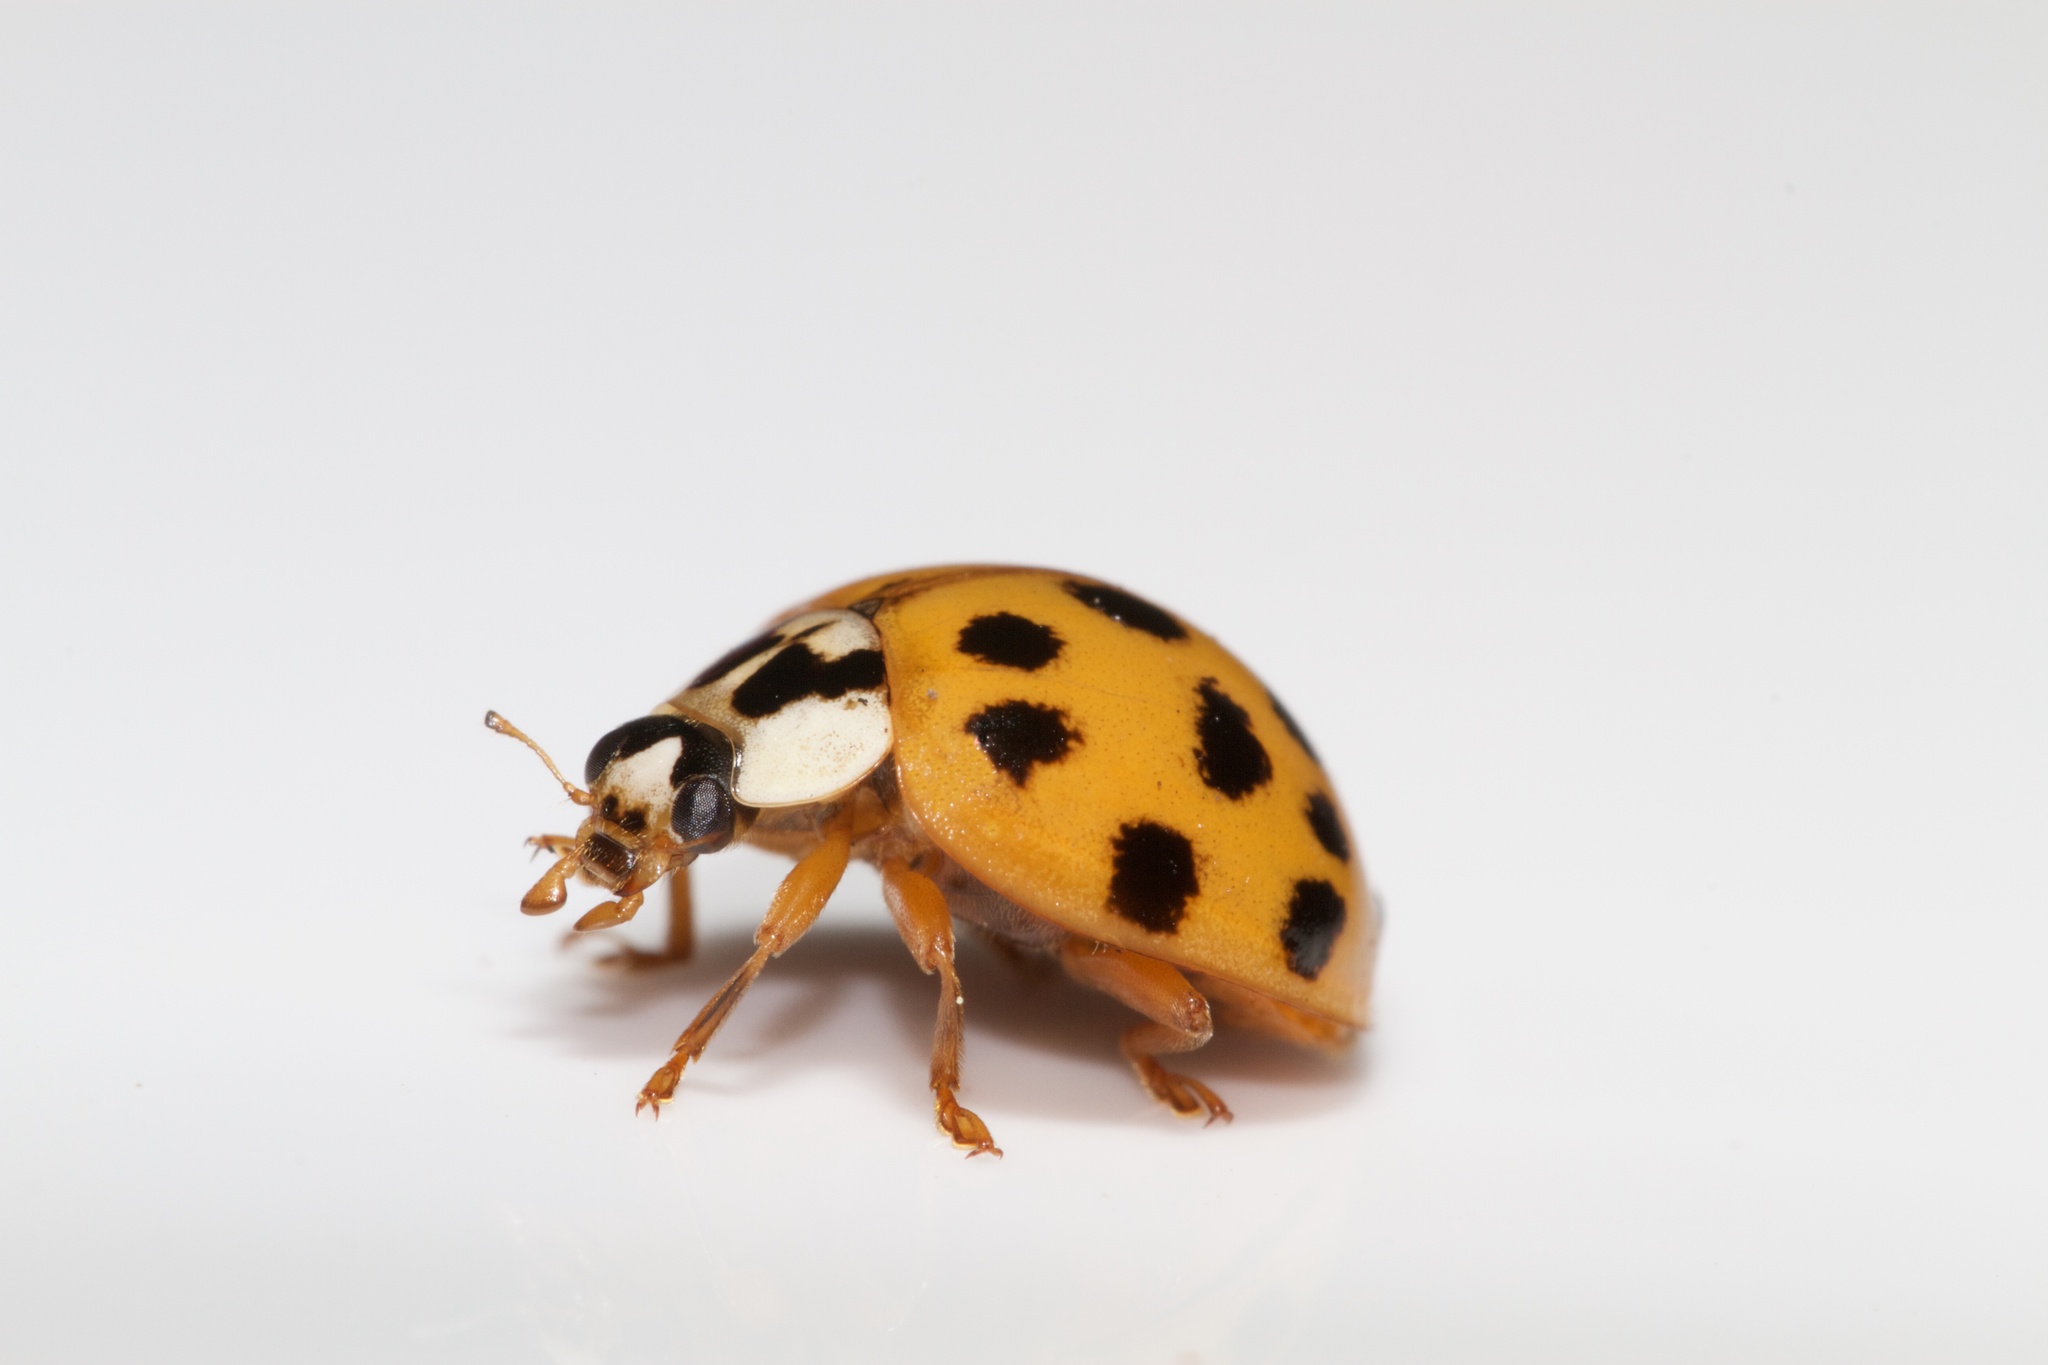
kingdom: Animalia
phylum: Arthropoda
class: Insecta
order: Coleoptera
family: Coccinellidae
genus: Harmonia
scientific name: Harmonia axyridis
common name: Harlequin ladybird
